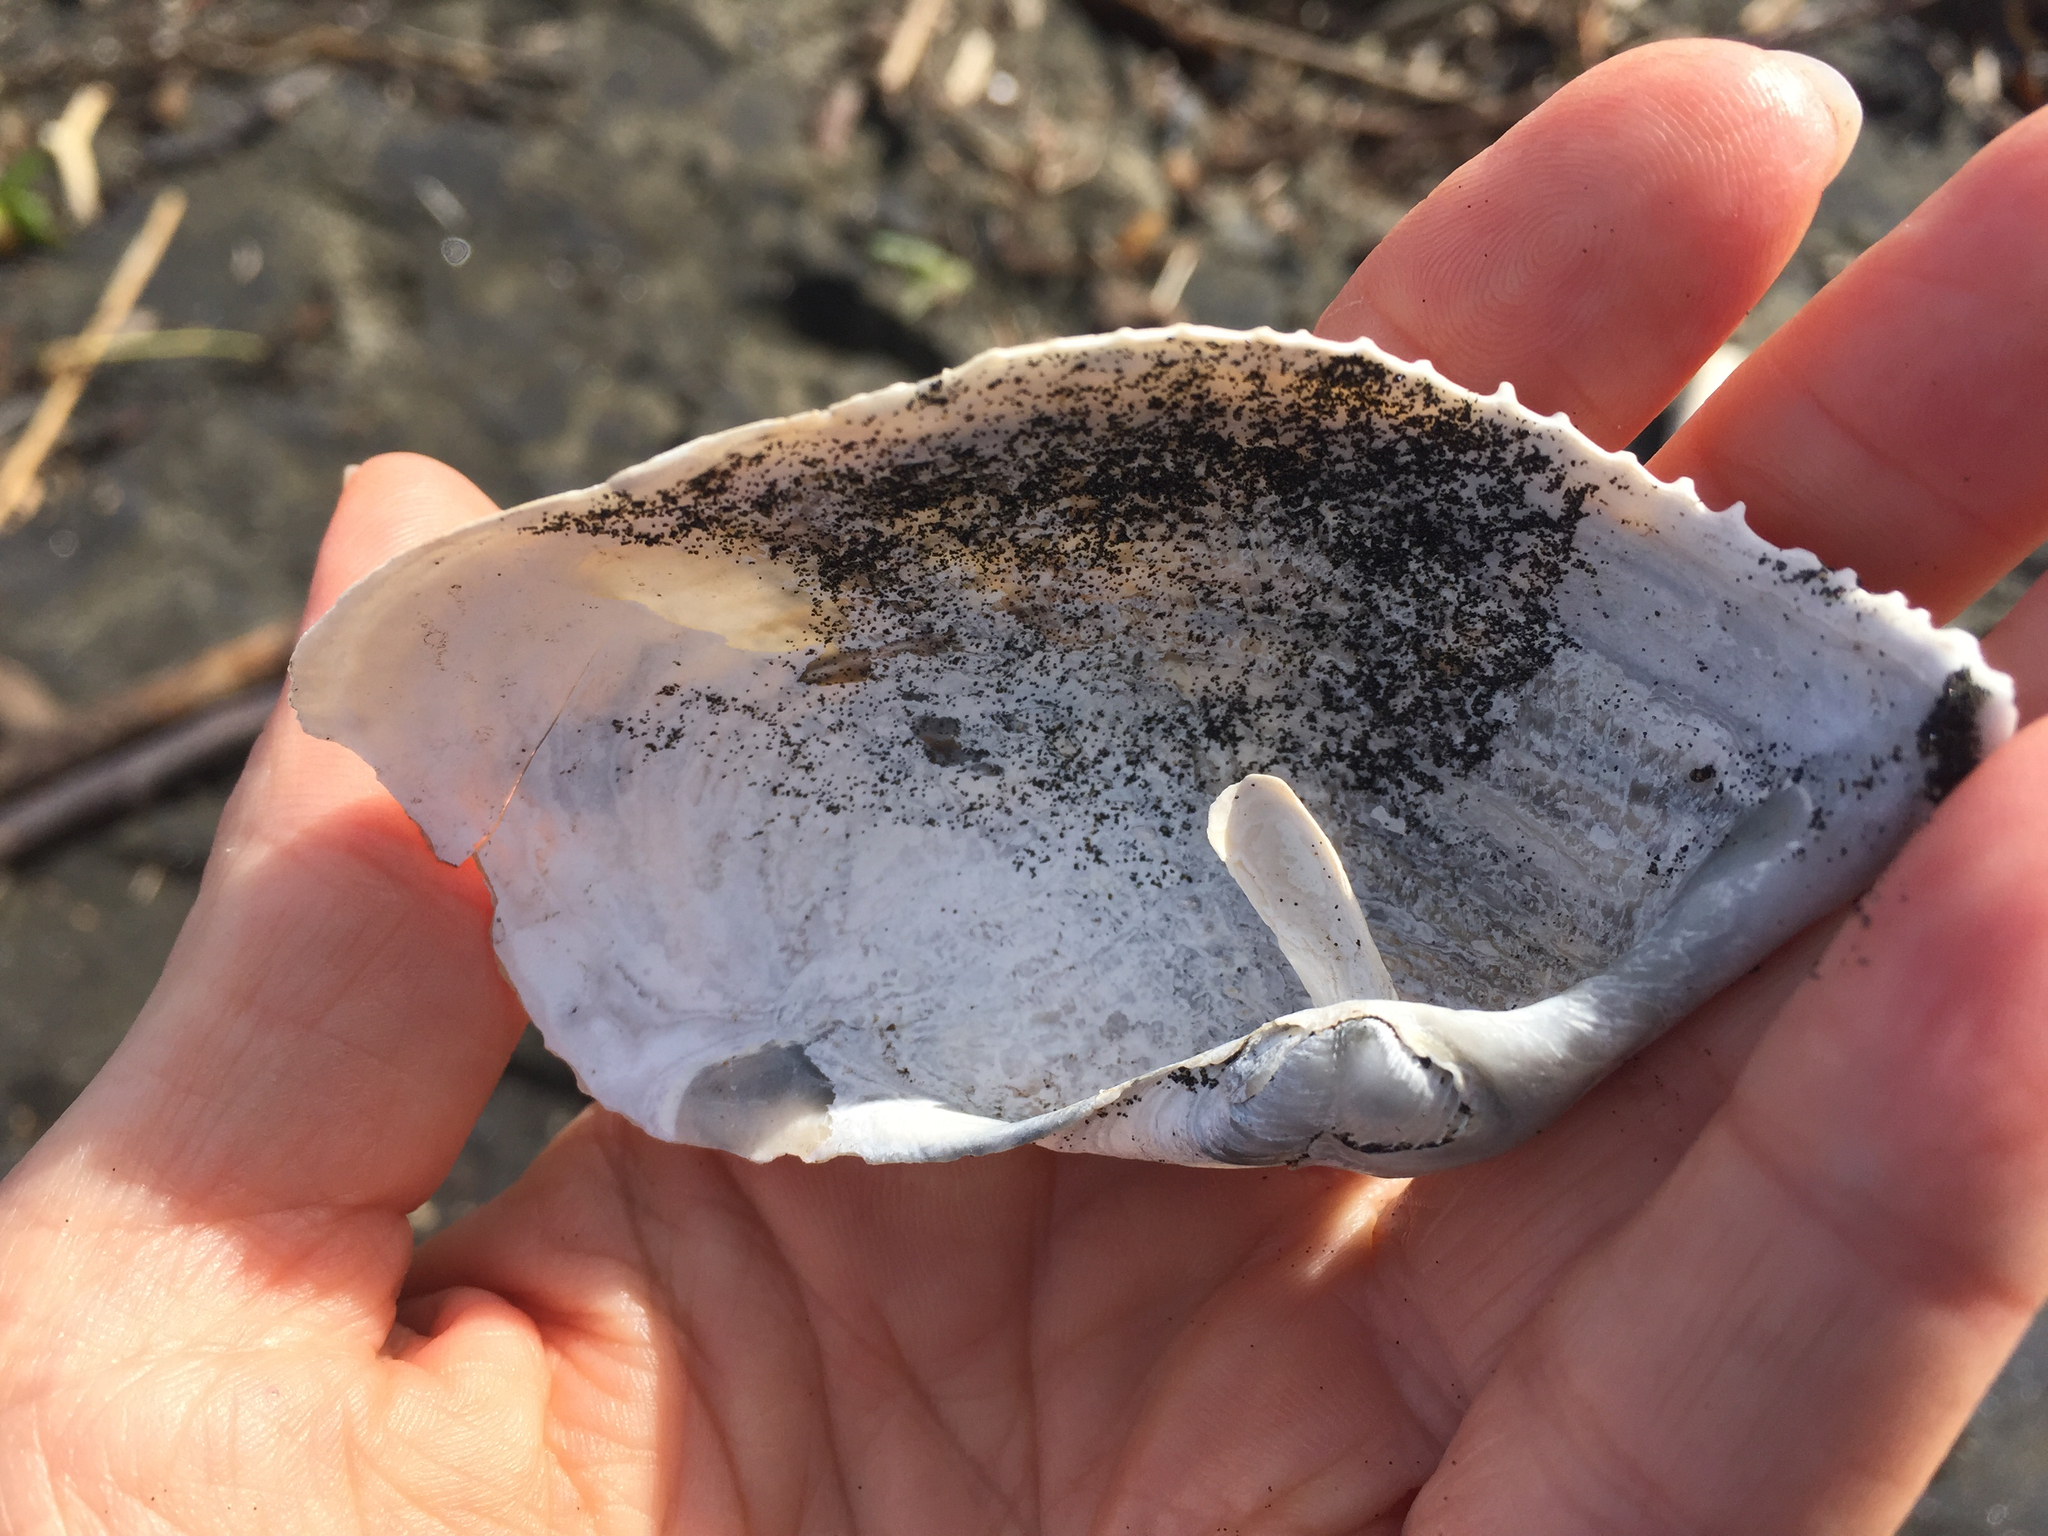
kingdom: Animalia
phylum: Mollusca
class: Bivalvia
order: Myida
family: Pholadidae
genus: Zirfaea
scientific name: Zirfaea pilsbryi
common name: Rough piddock
